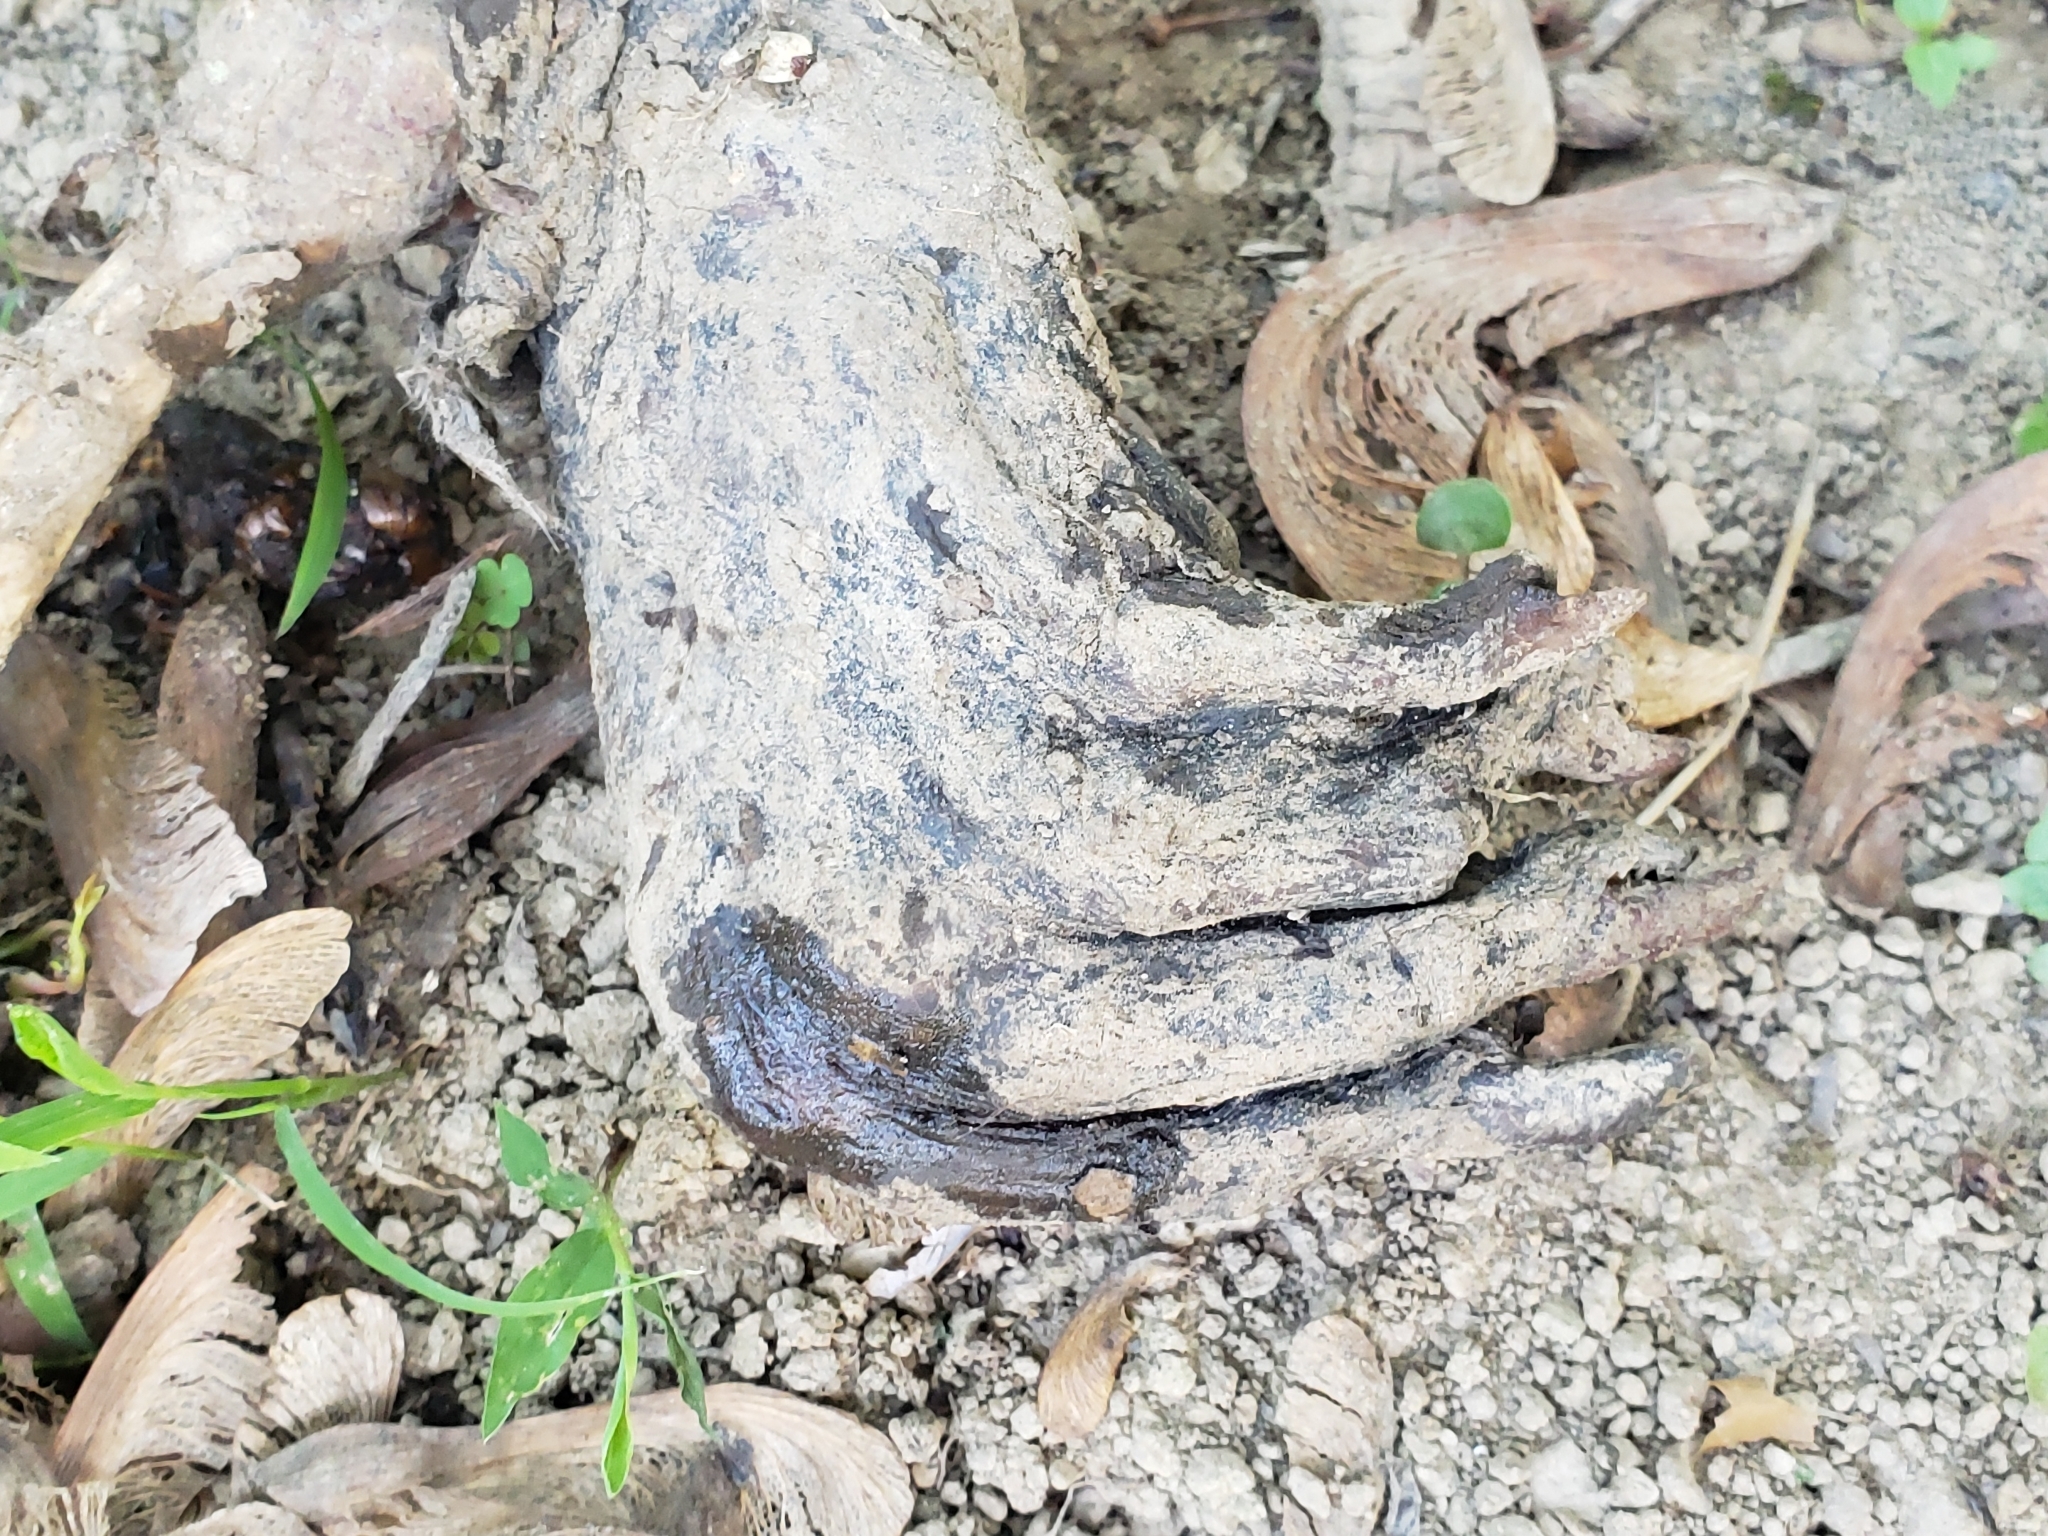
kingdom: Animalia
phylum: Chordata
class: Mammalia
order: Rodentia
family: Castoridae
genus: Castor
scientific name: Castor canadensis
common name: American beaver
